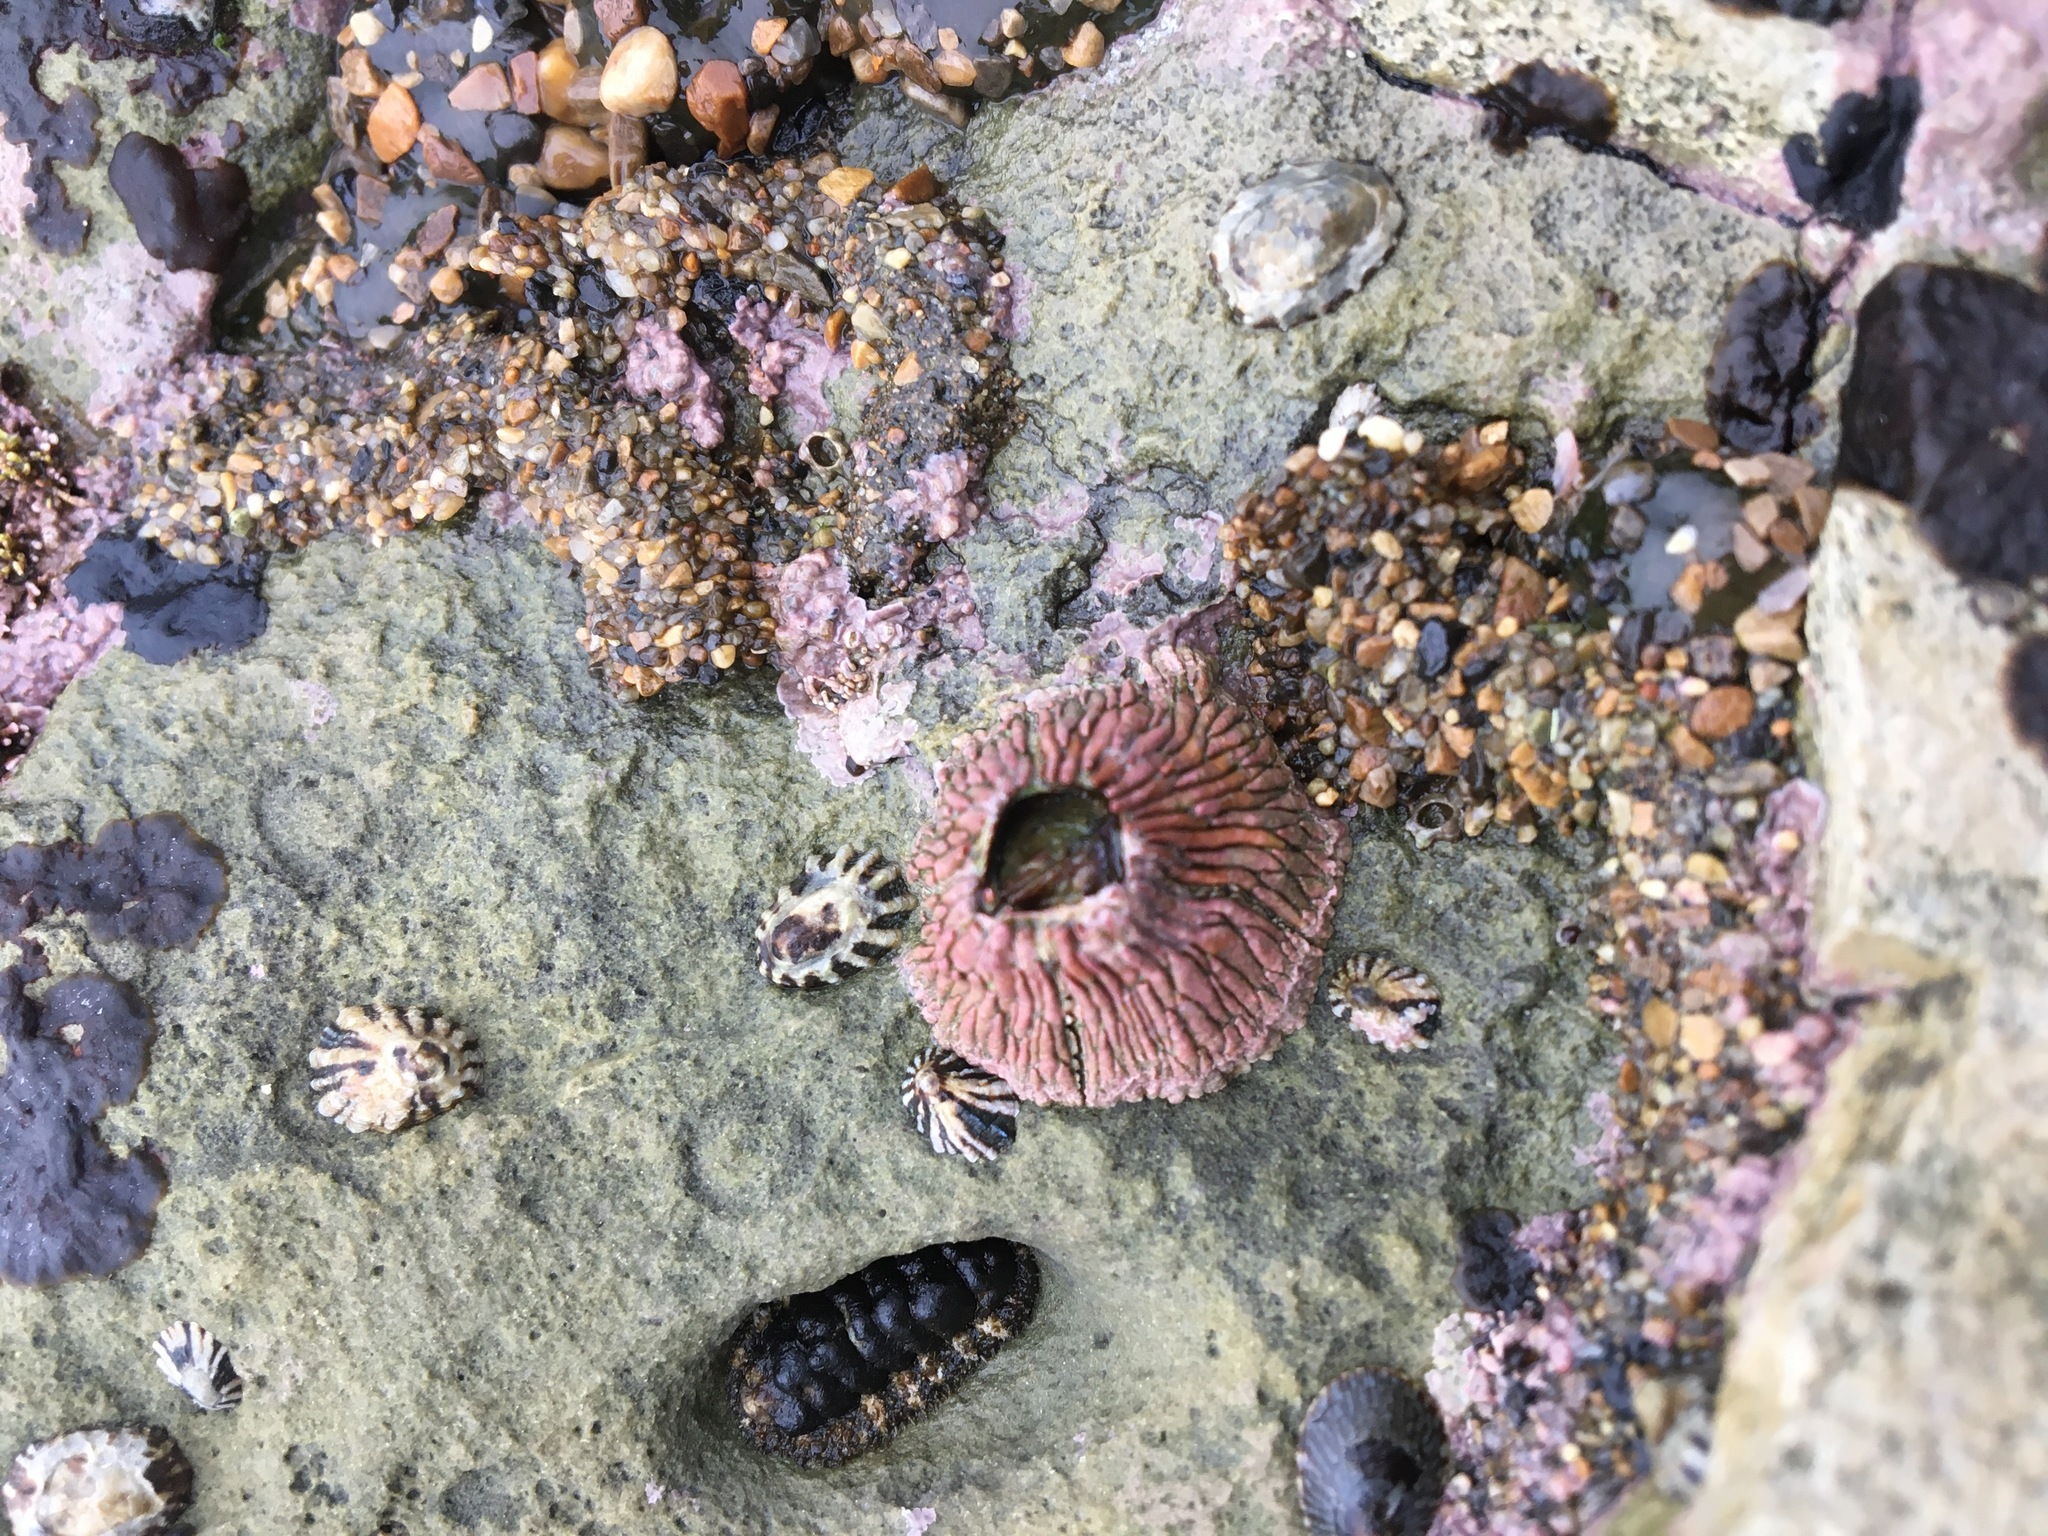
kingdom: Animalia
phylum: Arthropoda
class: Maxillopoda
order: Sessilia
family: Tetraclitidae
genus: Tetraclita
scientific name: Tetraclita rubescens
